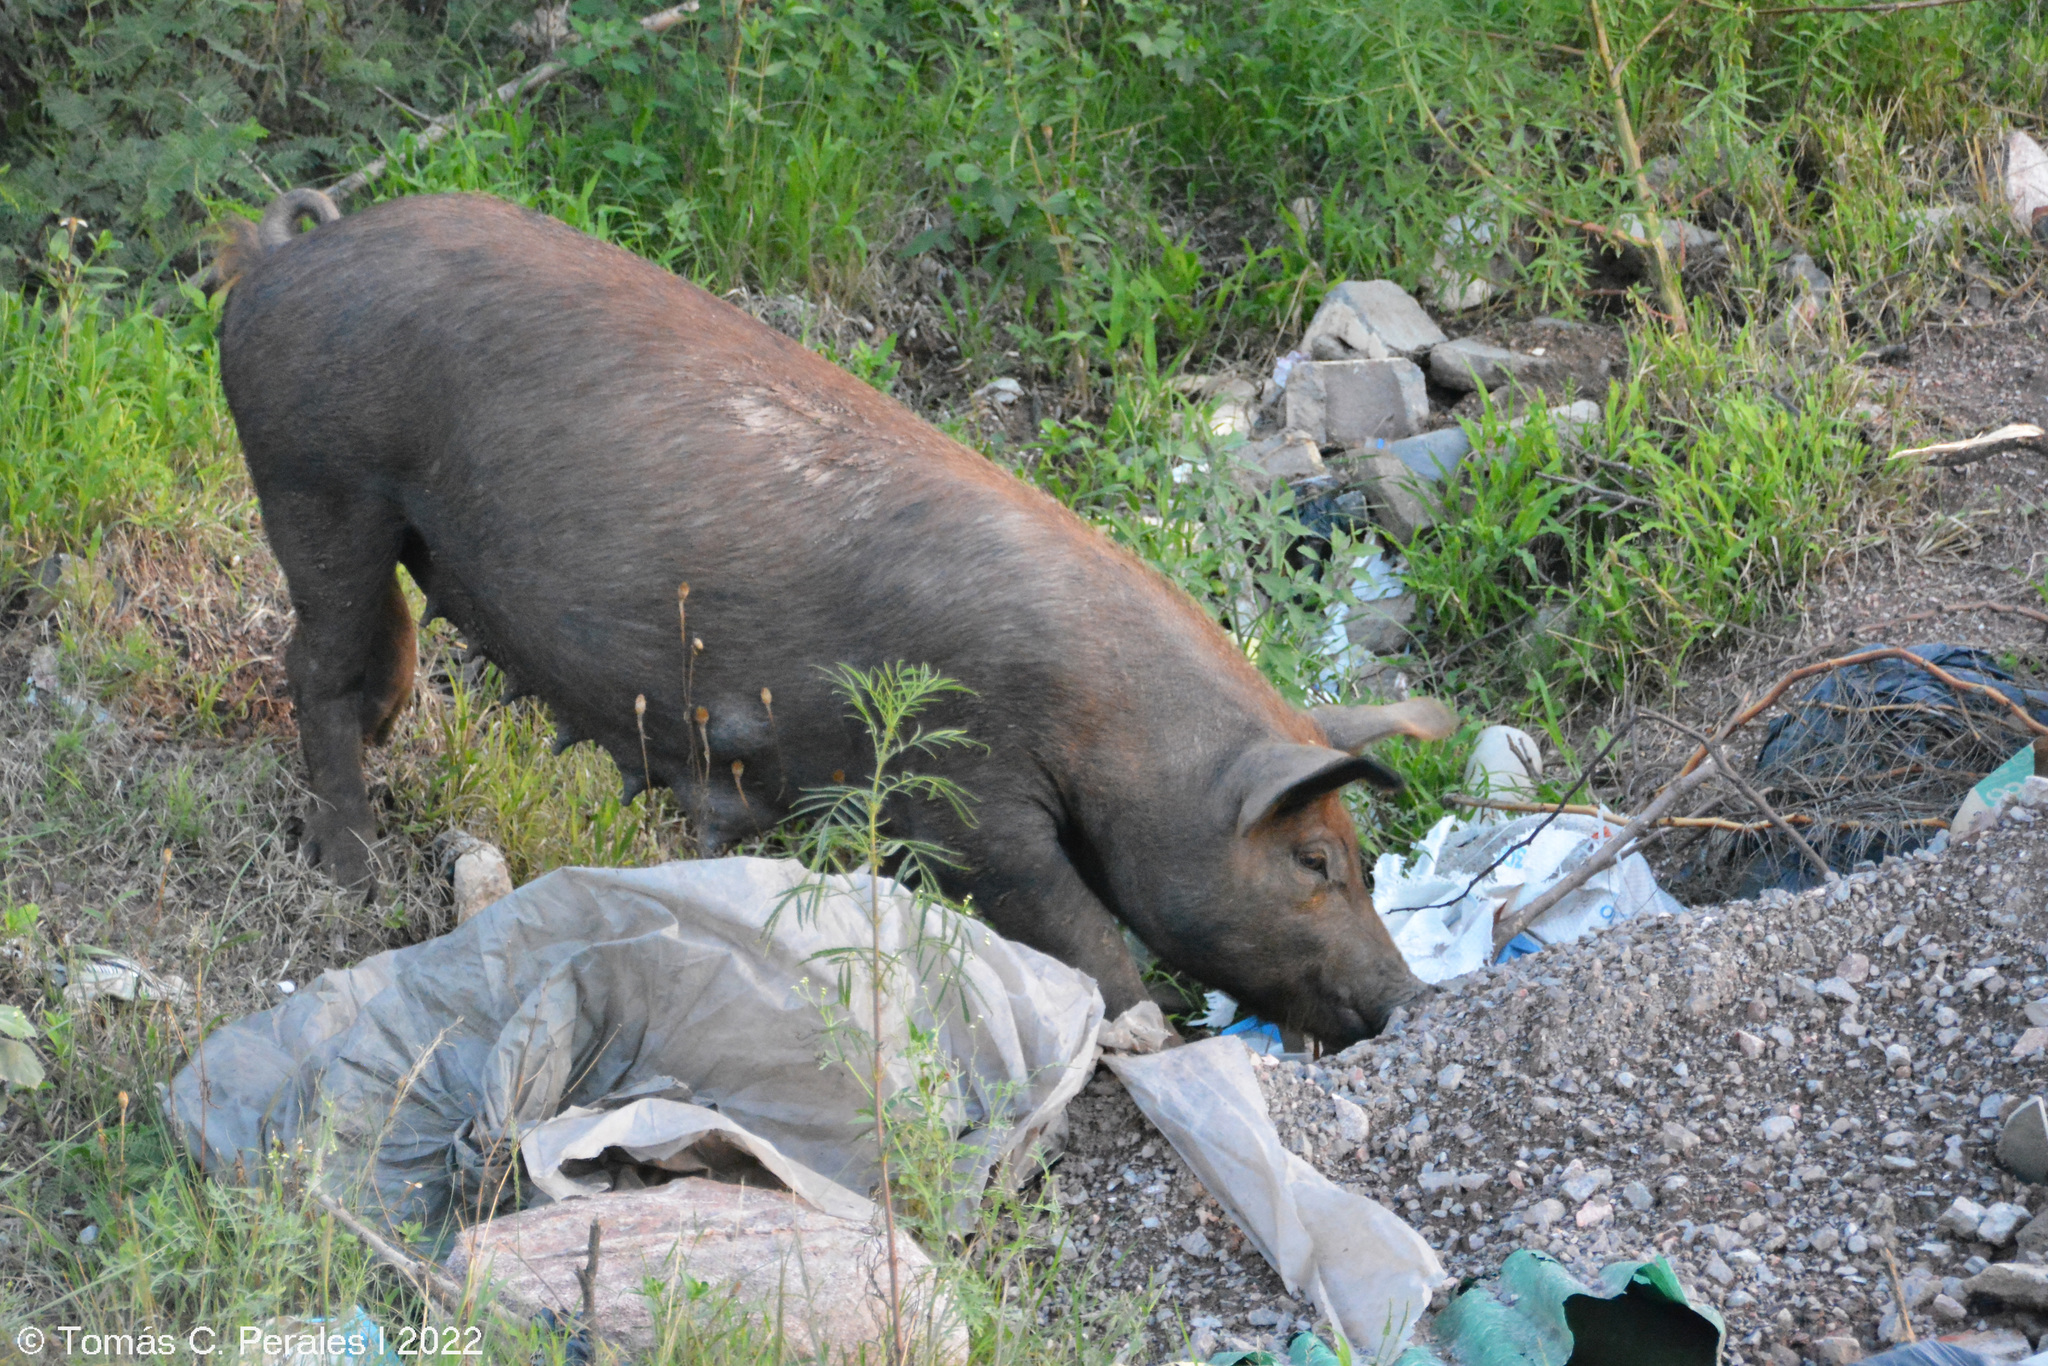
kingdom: Animalia
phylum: Chordata
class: Mammalia
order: Artiodactyla
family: Suidae
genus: Sus
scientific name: Sus scrofa
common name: Wild boar
